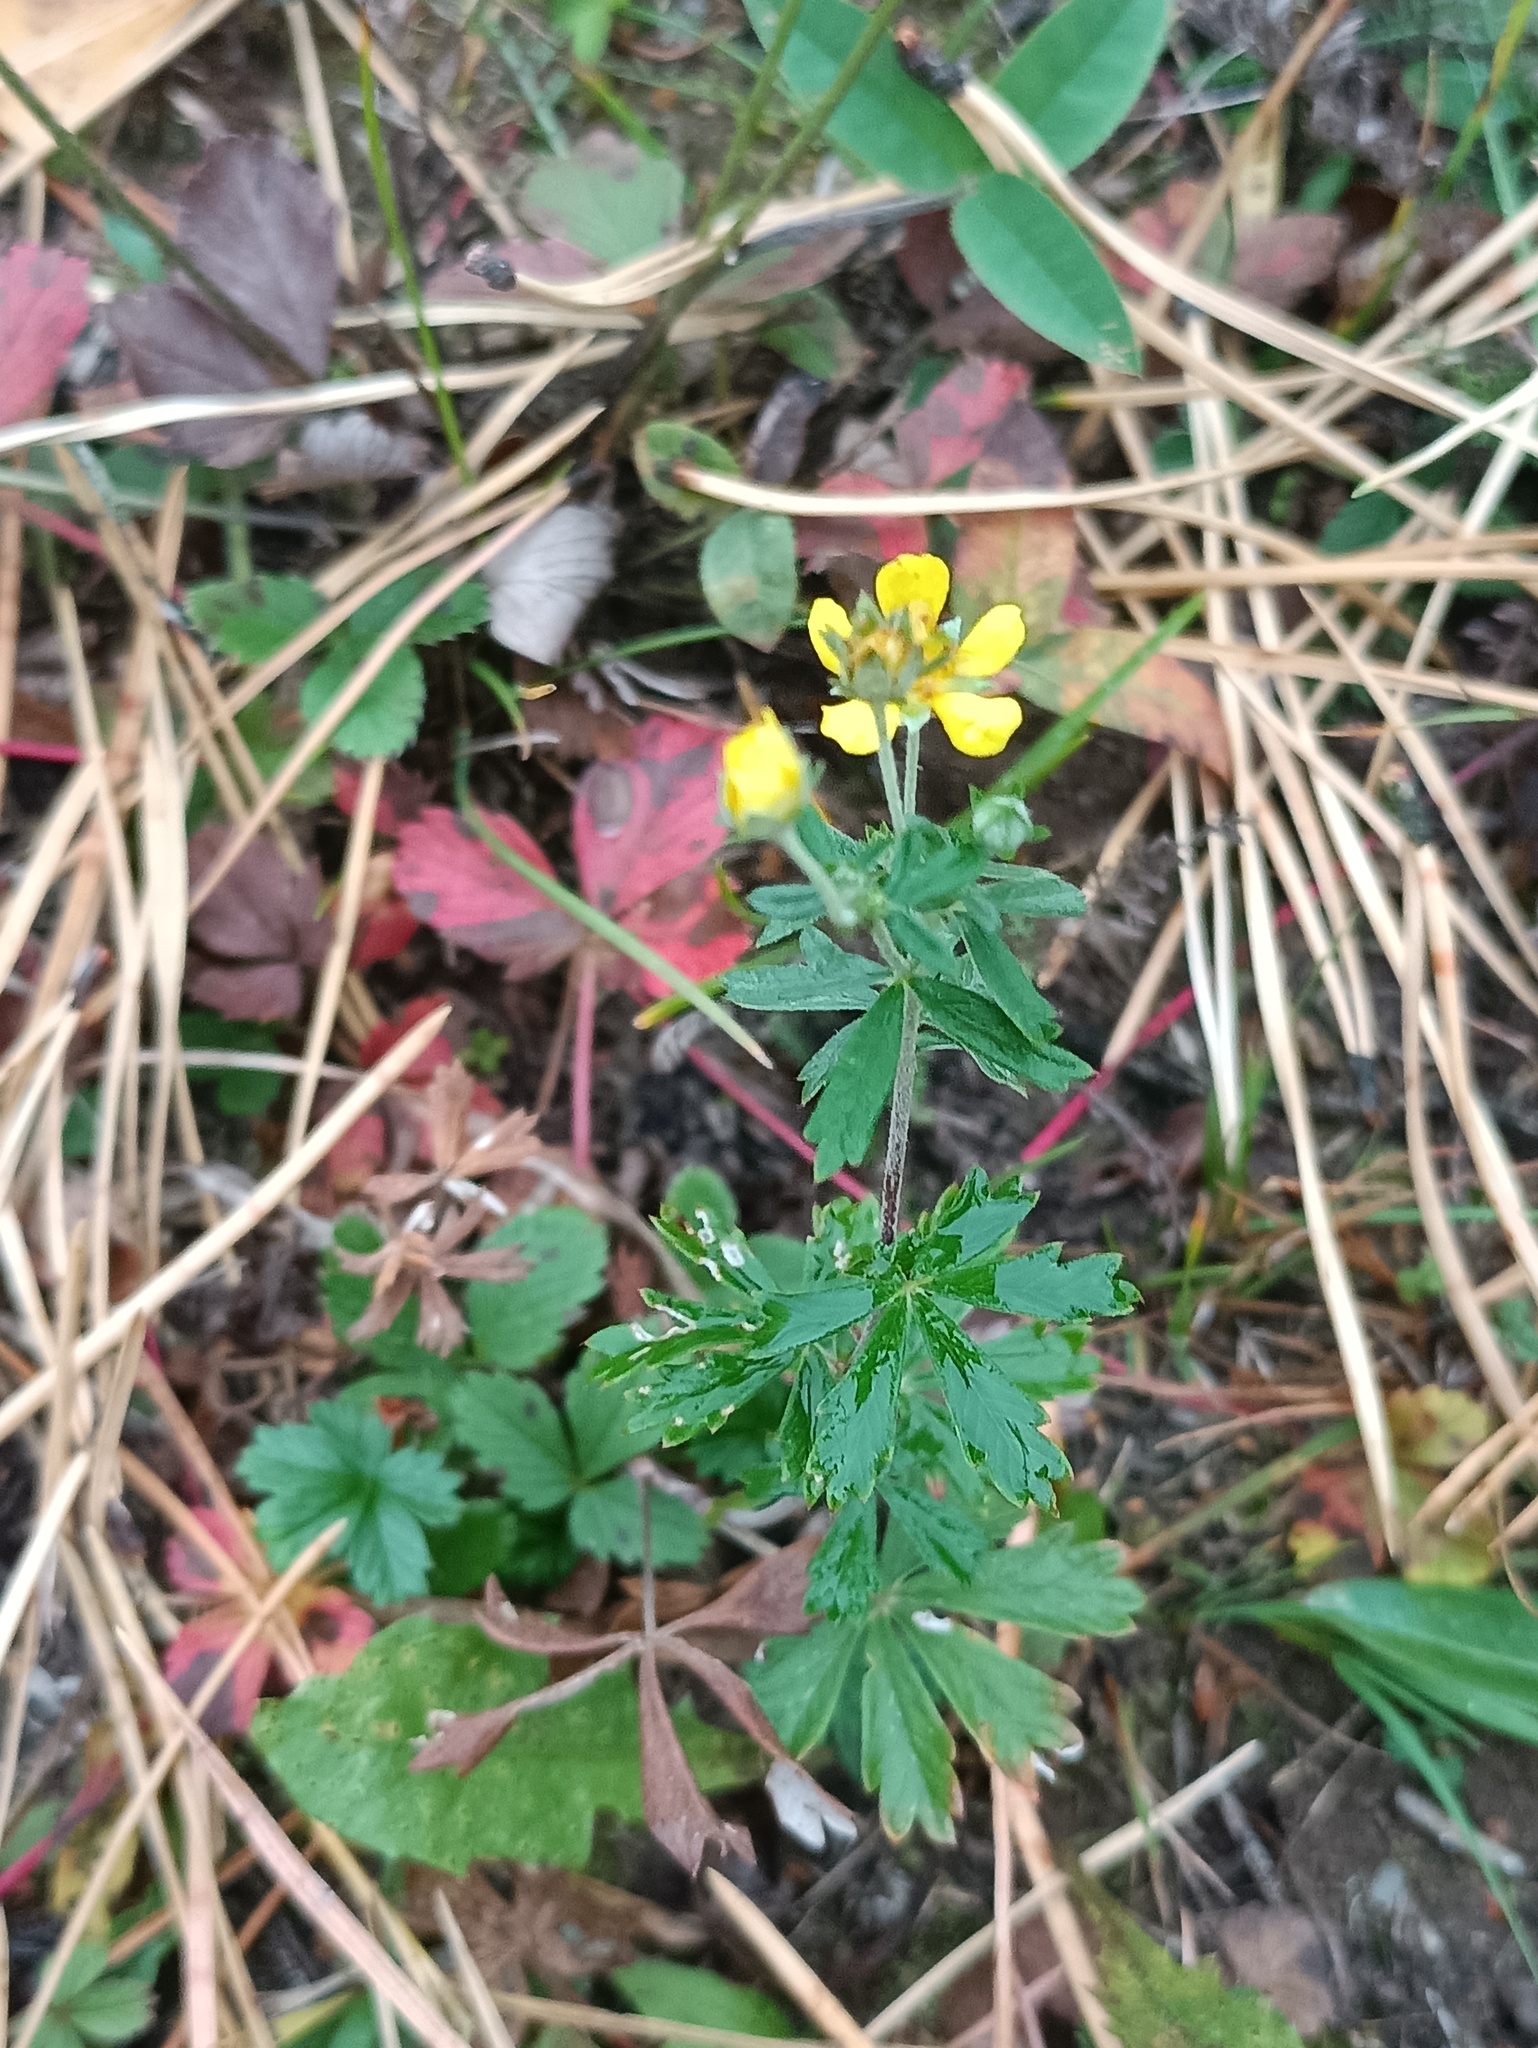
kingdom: Plantae
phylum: Tracheophyta
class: Magnoliopsida
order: Rosales
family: Rosaceae
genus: Potentilla
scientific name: Potentilla argentea
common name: Hoary cinquefoil
